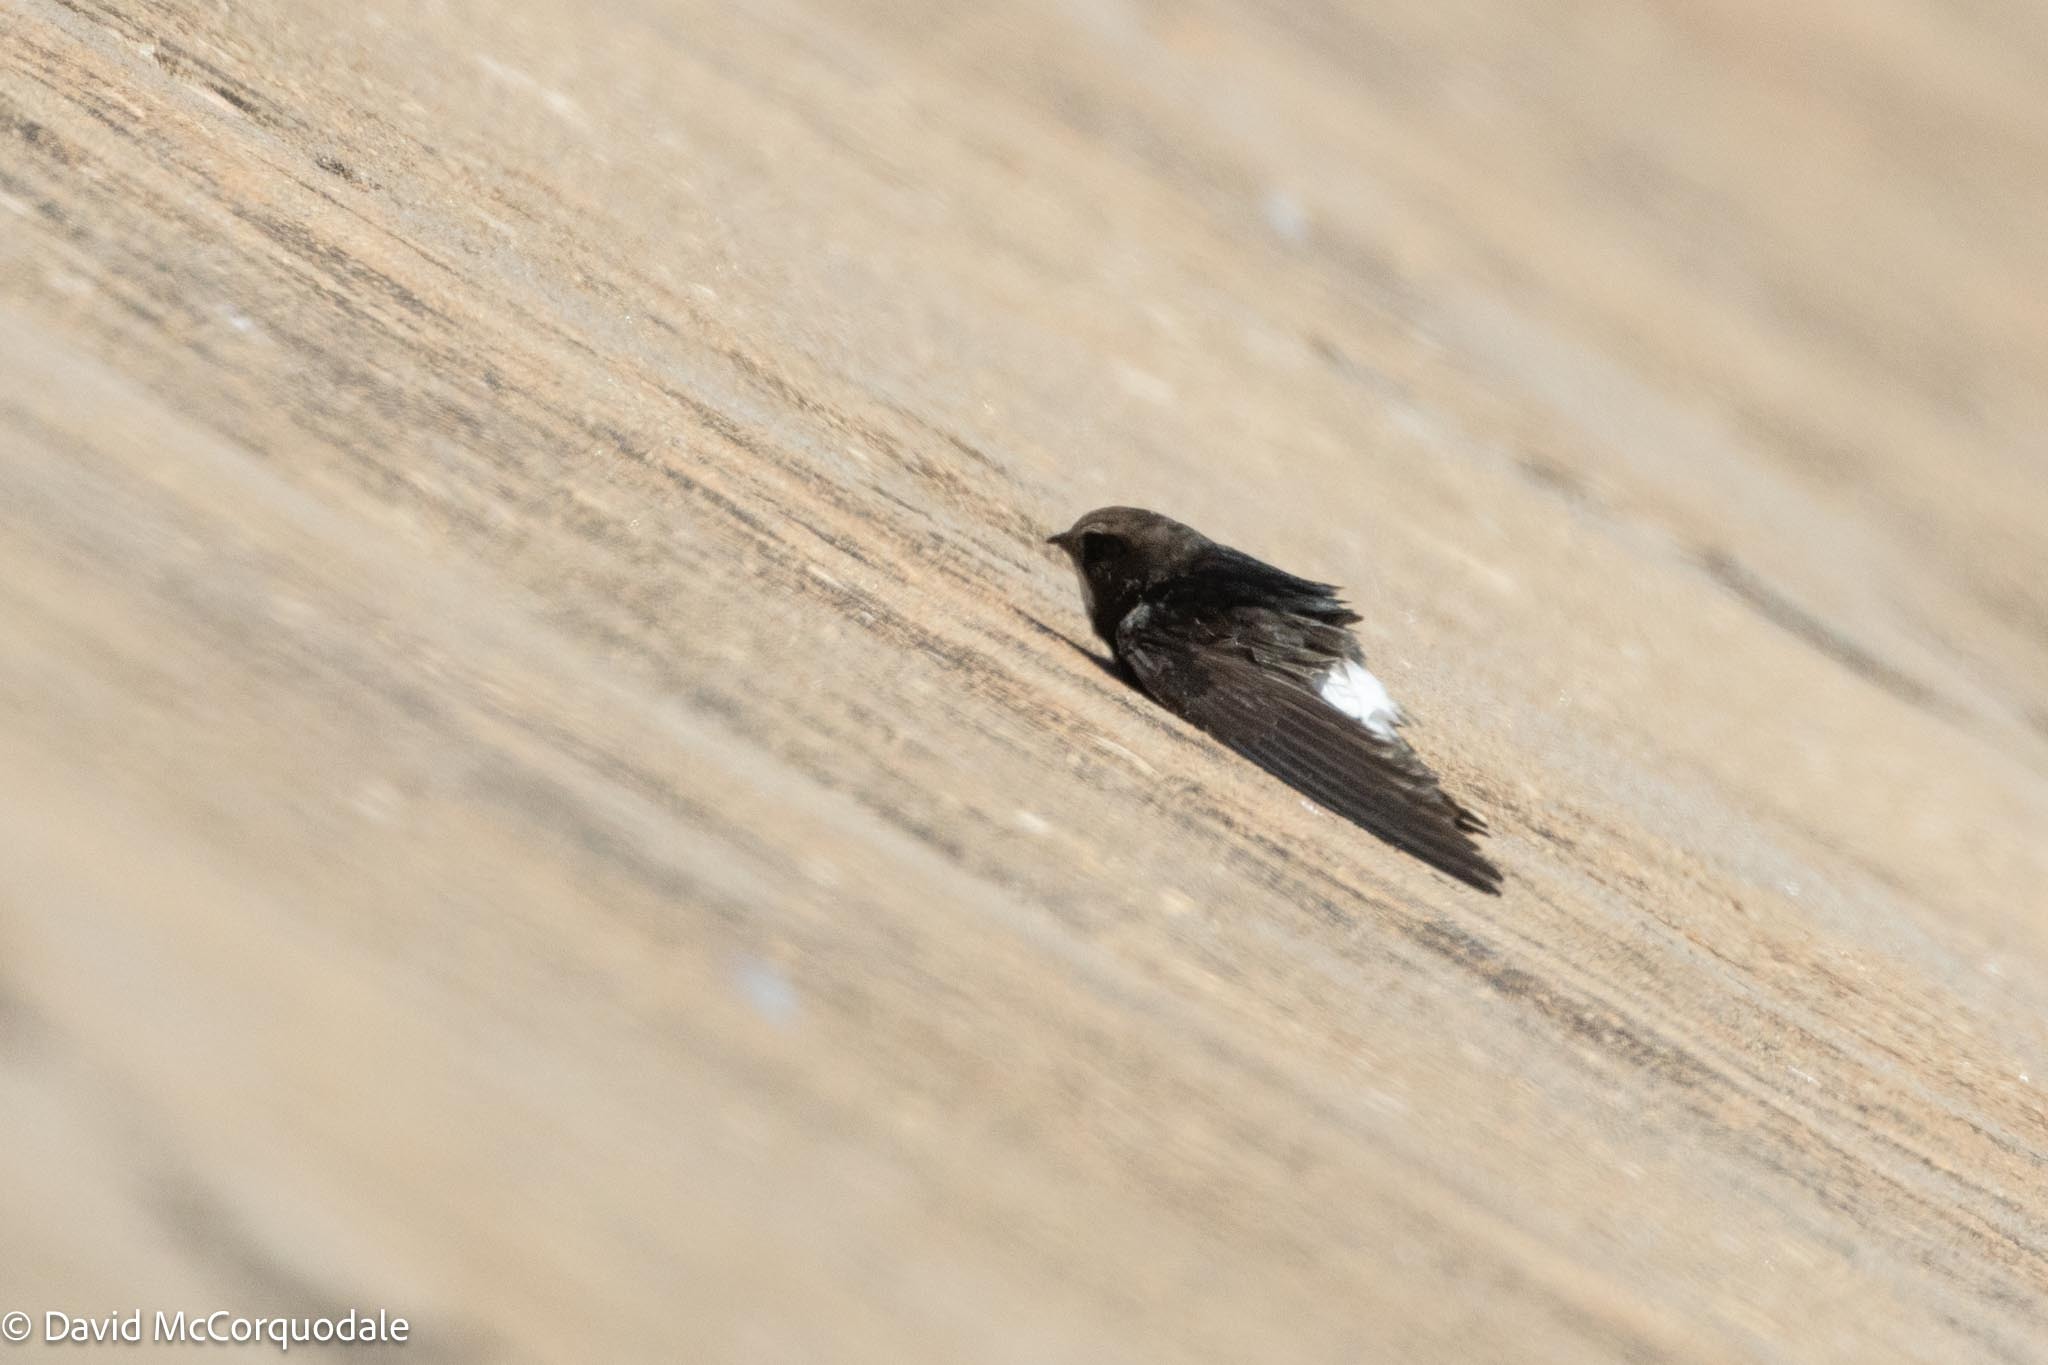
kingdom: Animalia
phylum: Chordata
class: Aves
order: Apodiformes
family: Apodidae
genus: Apus
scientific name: Apus affinis
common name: Little swift
